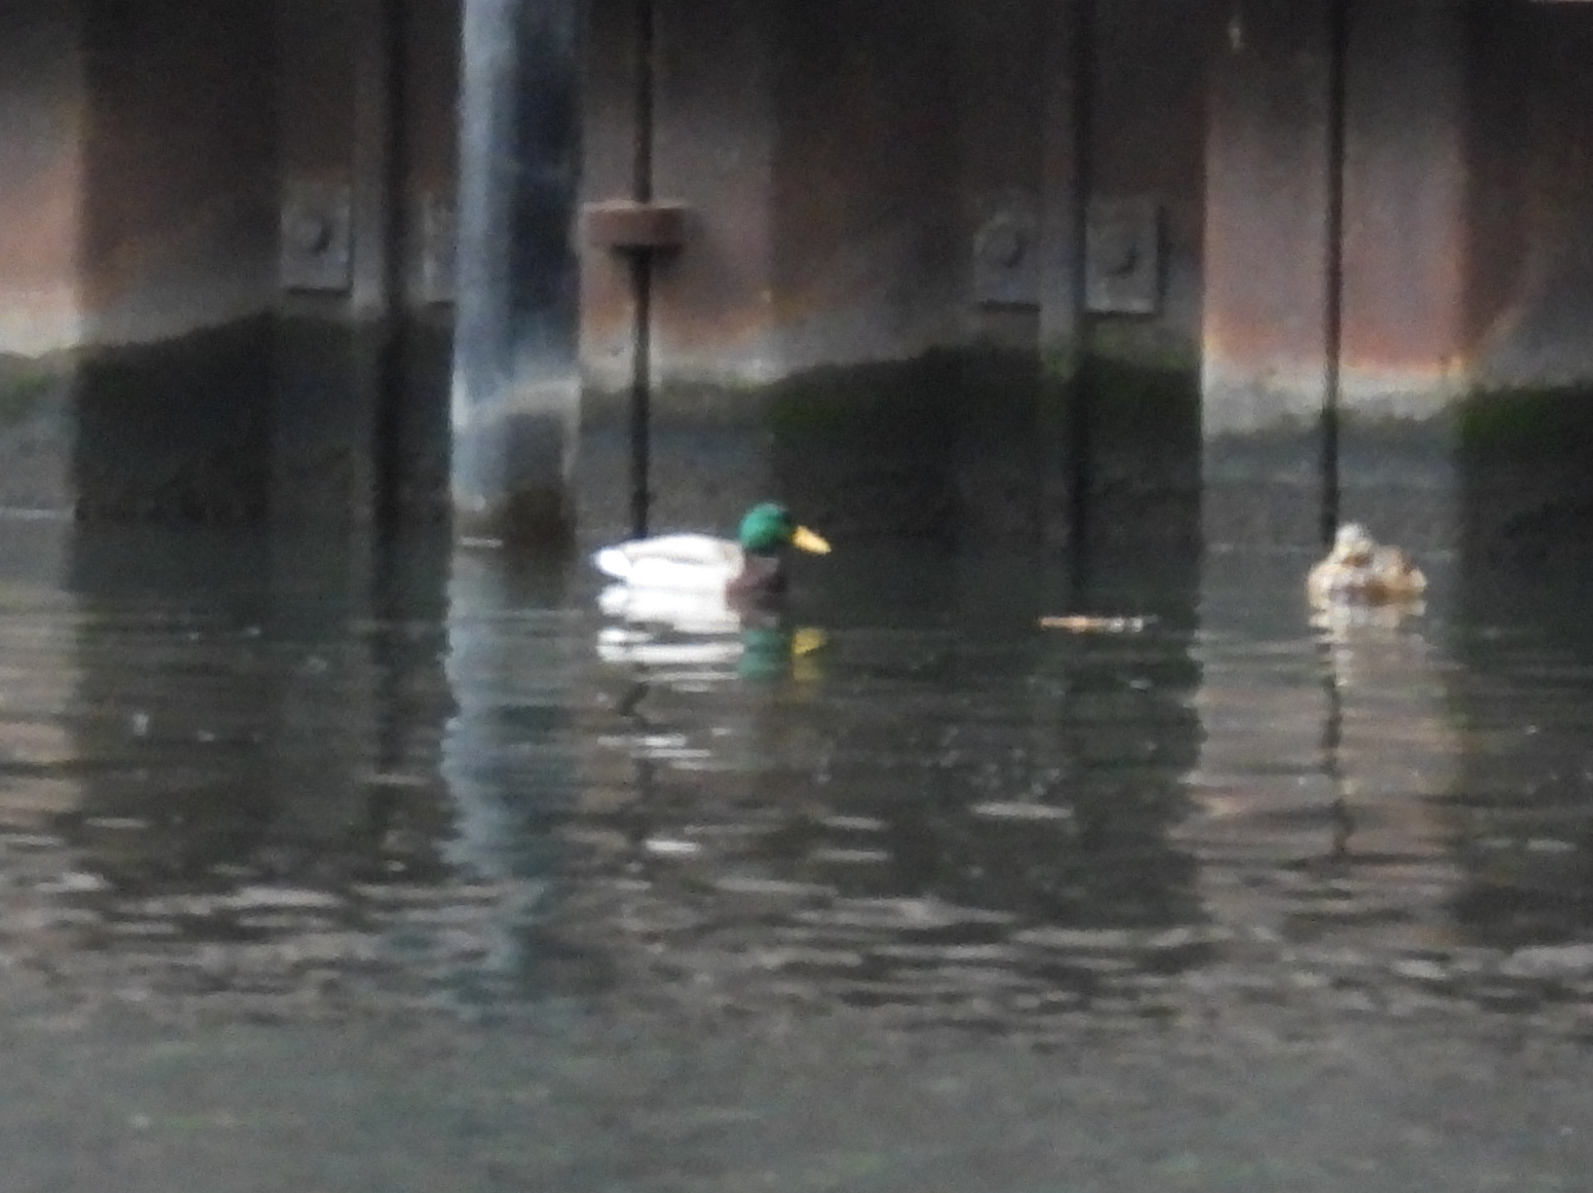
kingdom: Animalia
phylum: Chordata
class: Aves
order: Anseriformes
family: Anatidae
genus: Anas
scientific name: Anas platyrhynchos
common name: Mallard
